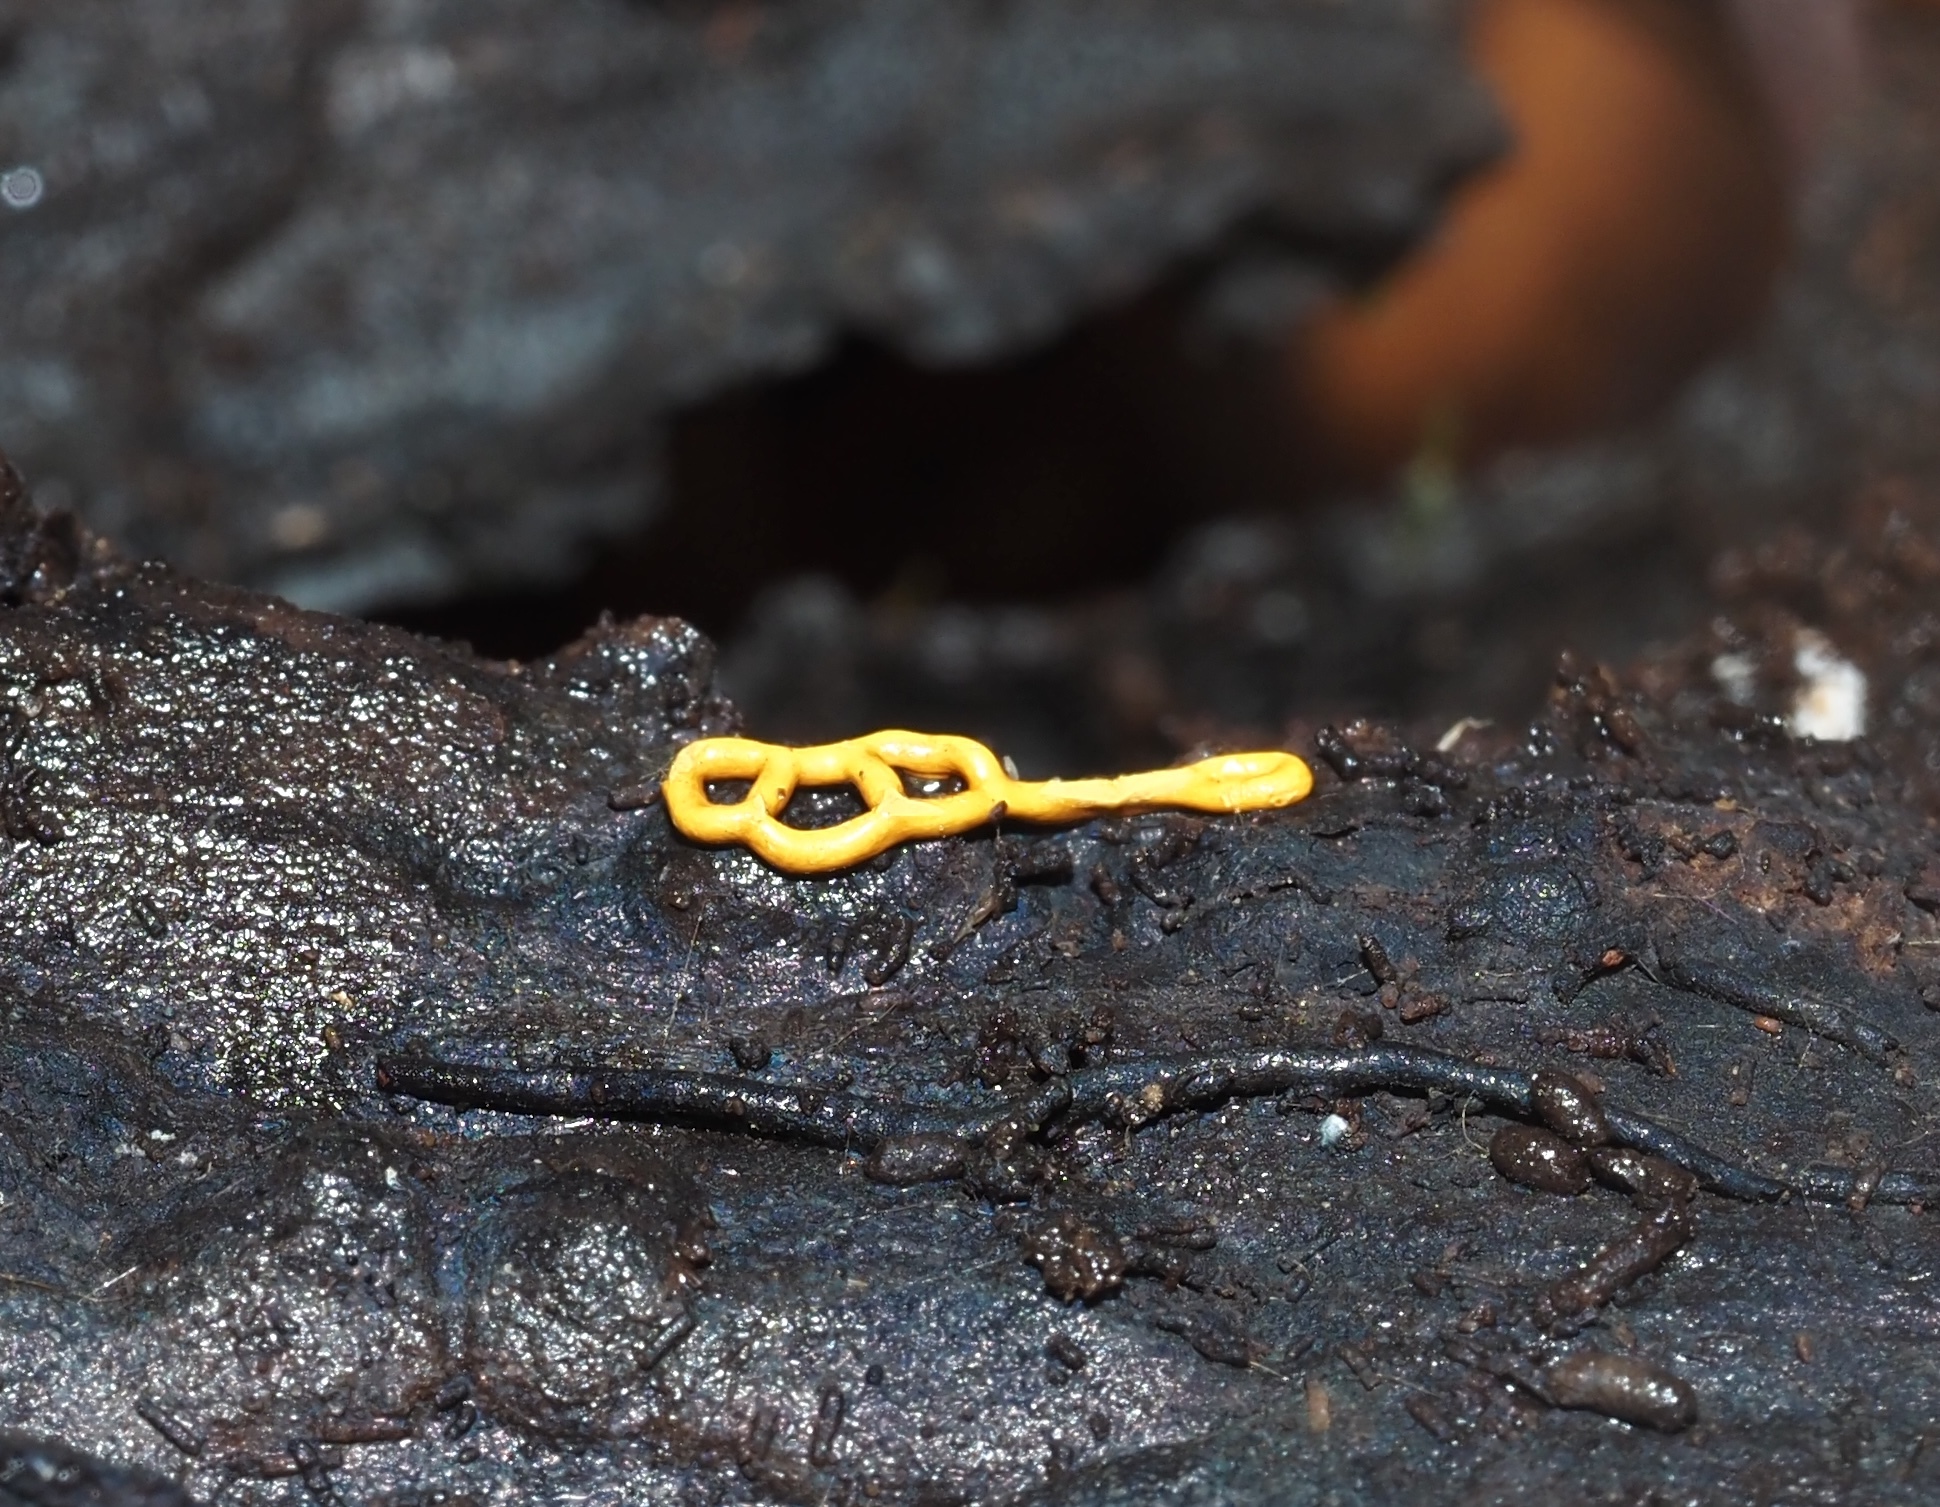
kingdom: Protozoa
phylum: Mycetozoa
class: Myxomycetes
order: Trichiales
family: Arcyriaceae
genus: Hemitrichia
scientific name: Hemitrichia serpula
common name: Pretzel slime mold
